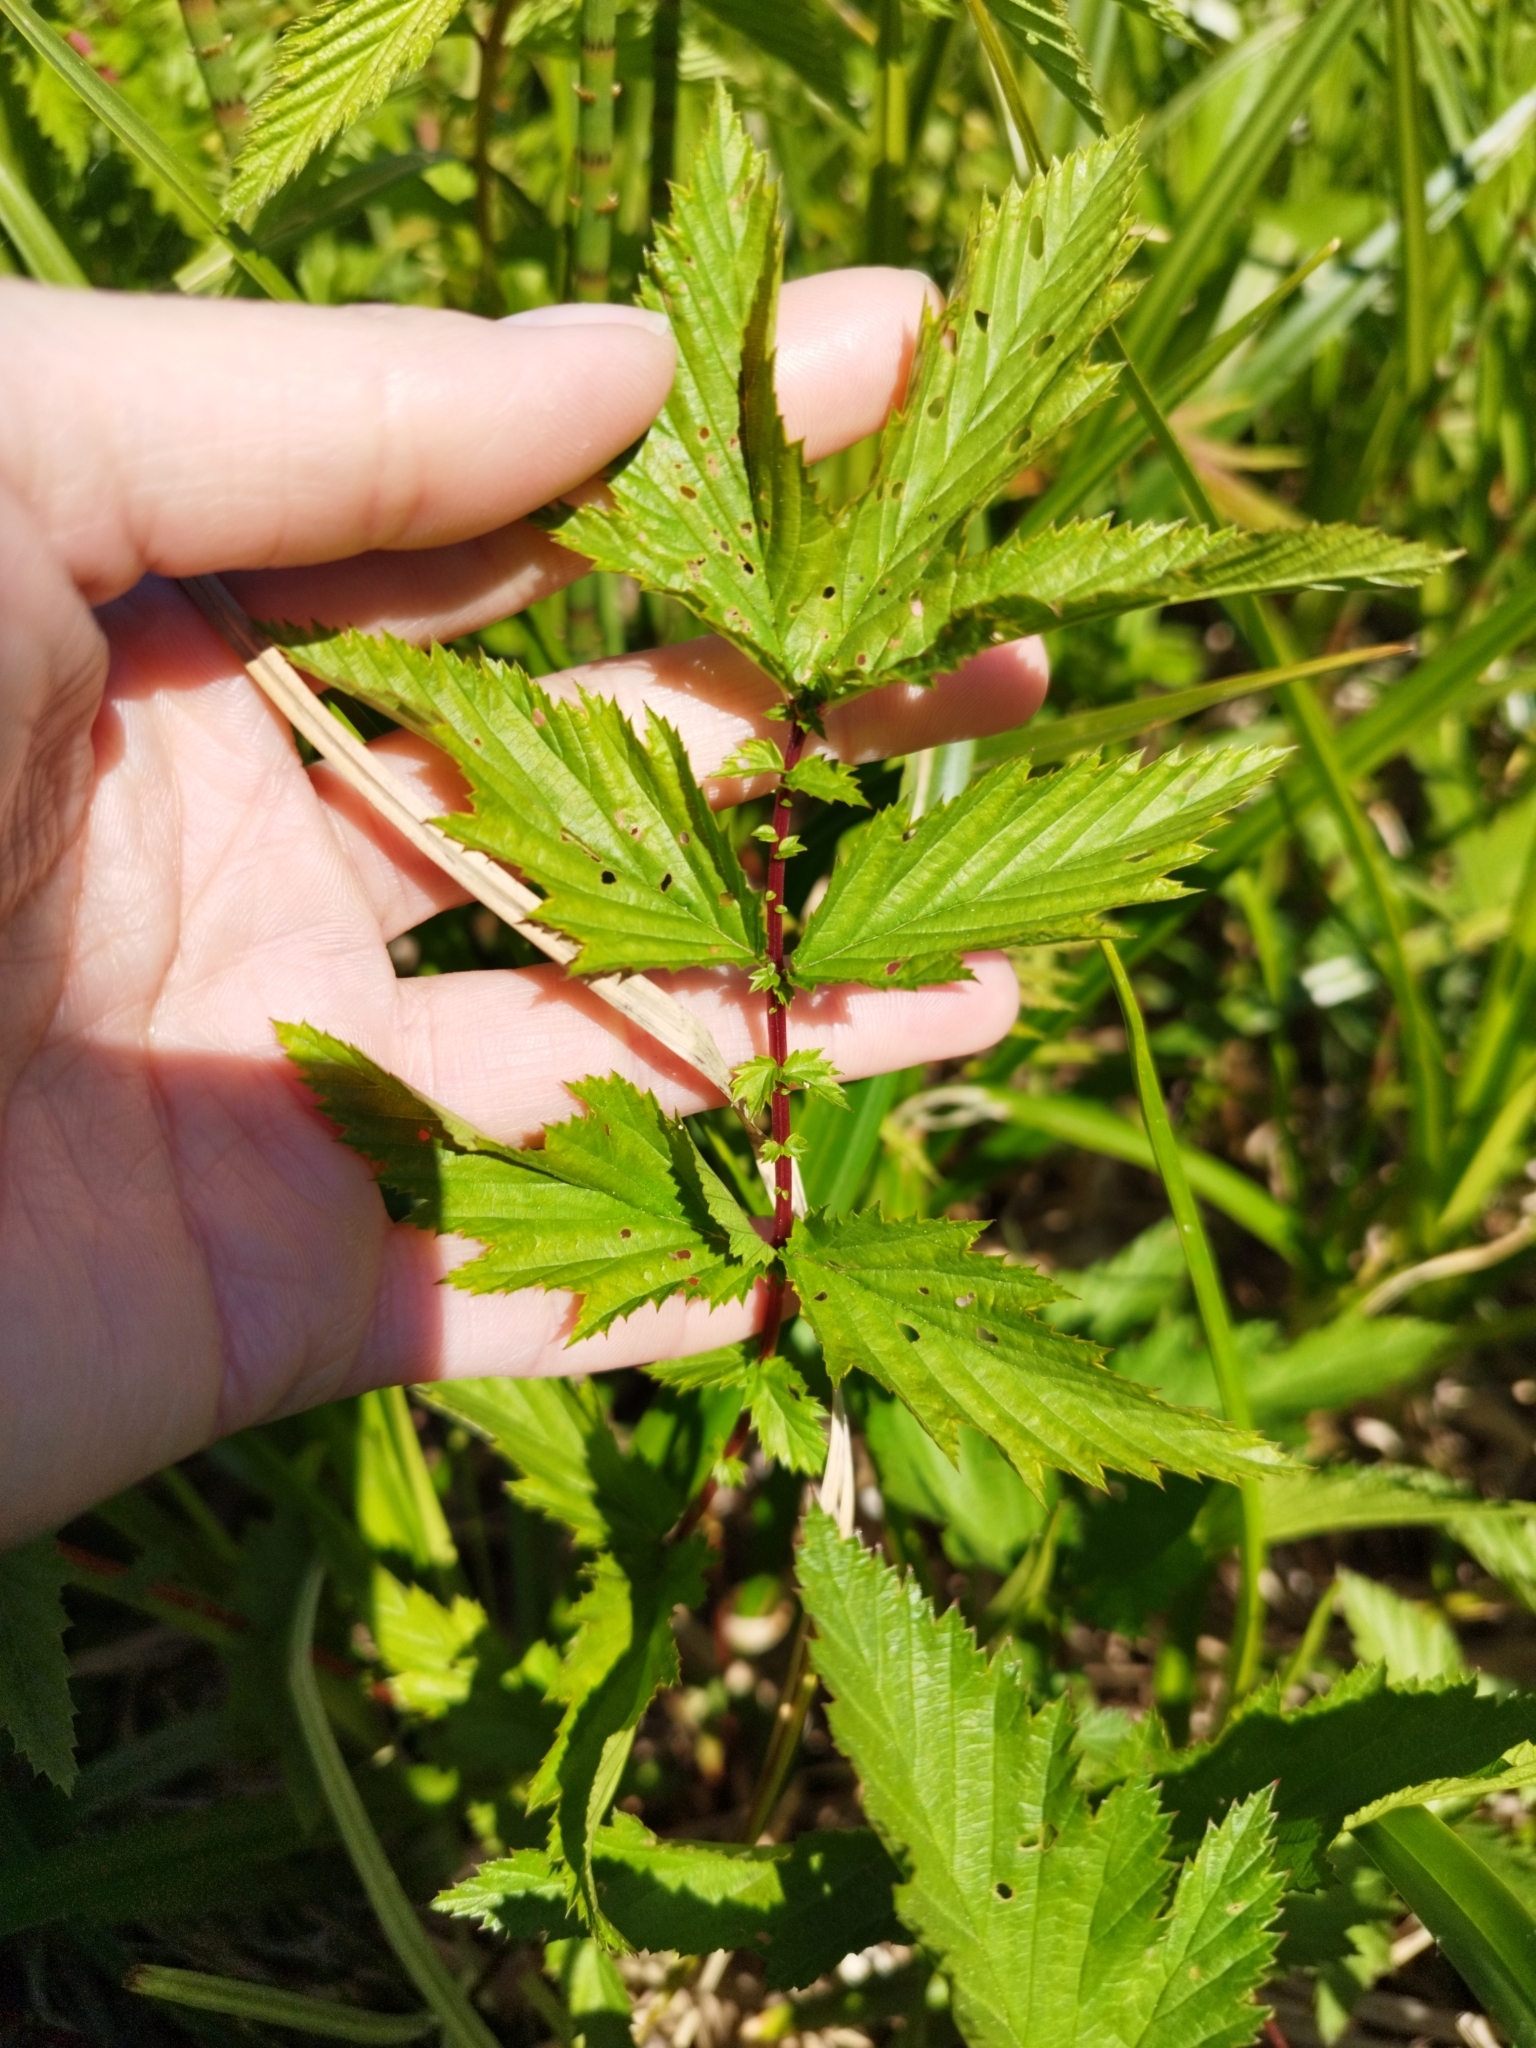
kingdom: Plantae
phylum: Tracheophyta
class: Magnoliopsida
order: Rosales
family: Rosaceae
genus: Filipendula
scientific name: Filipendula ulmaria
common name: Meadowsweet
